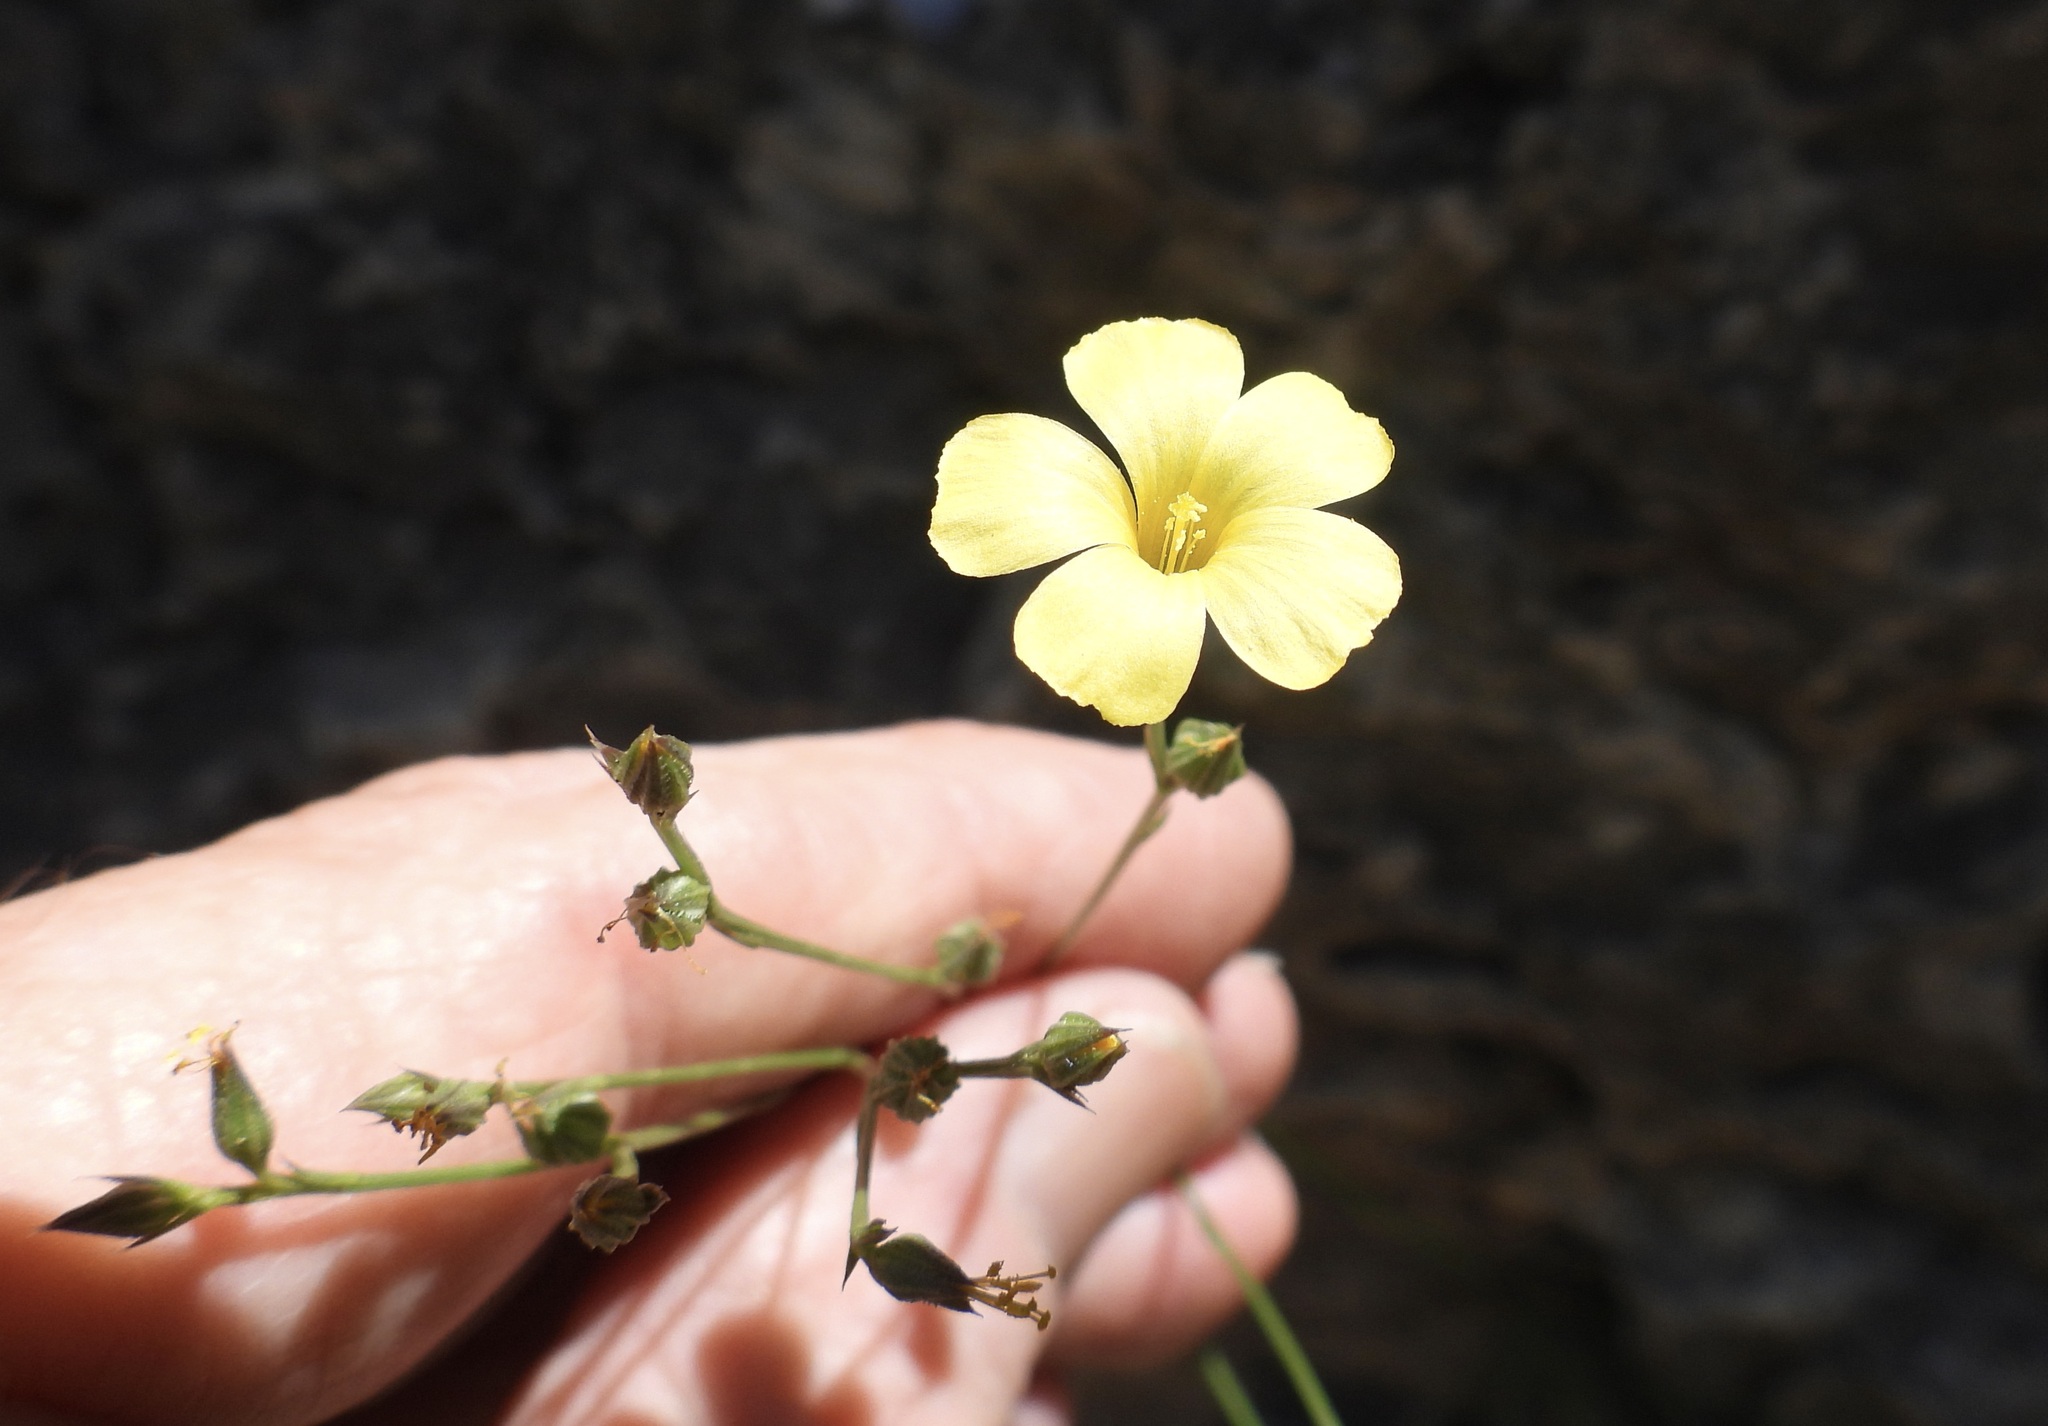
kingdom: Plantae
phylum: Tracheophyta
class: Magnoliopsida
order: Malpighiales
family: Linaceae
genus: Linum
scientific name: Linum rupestre
